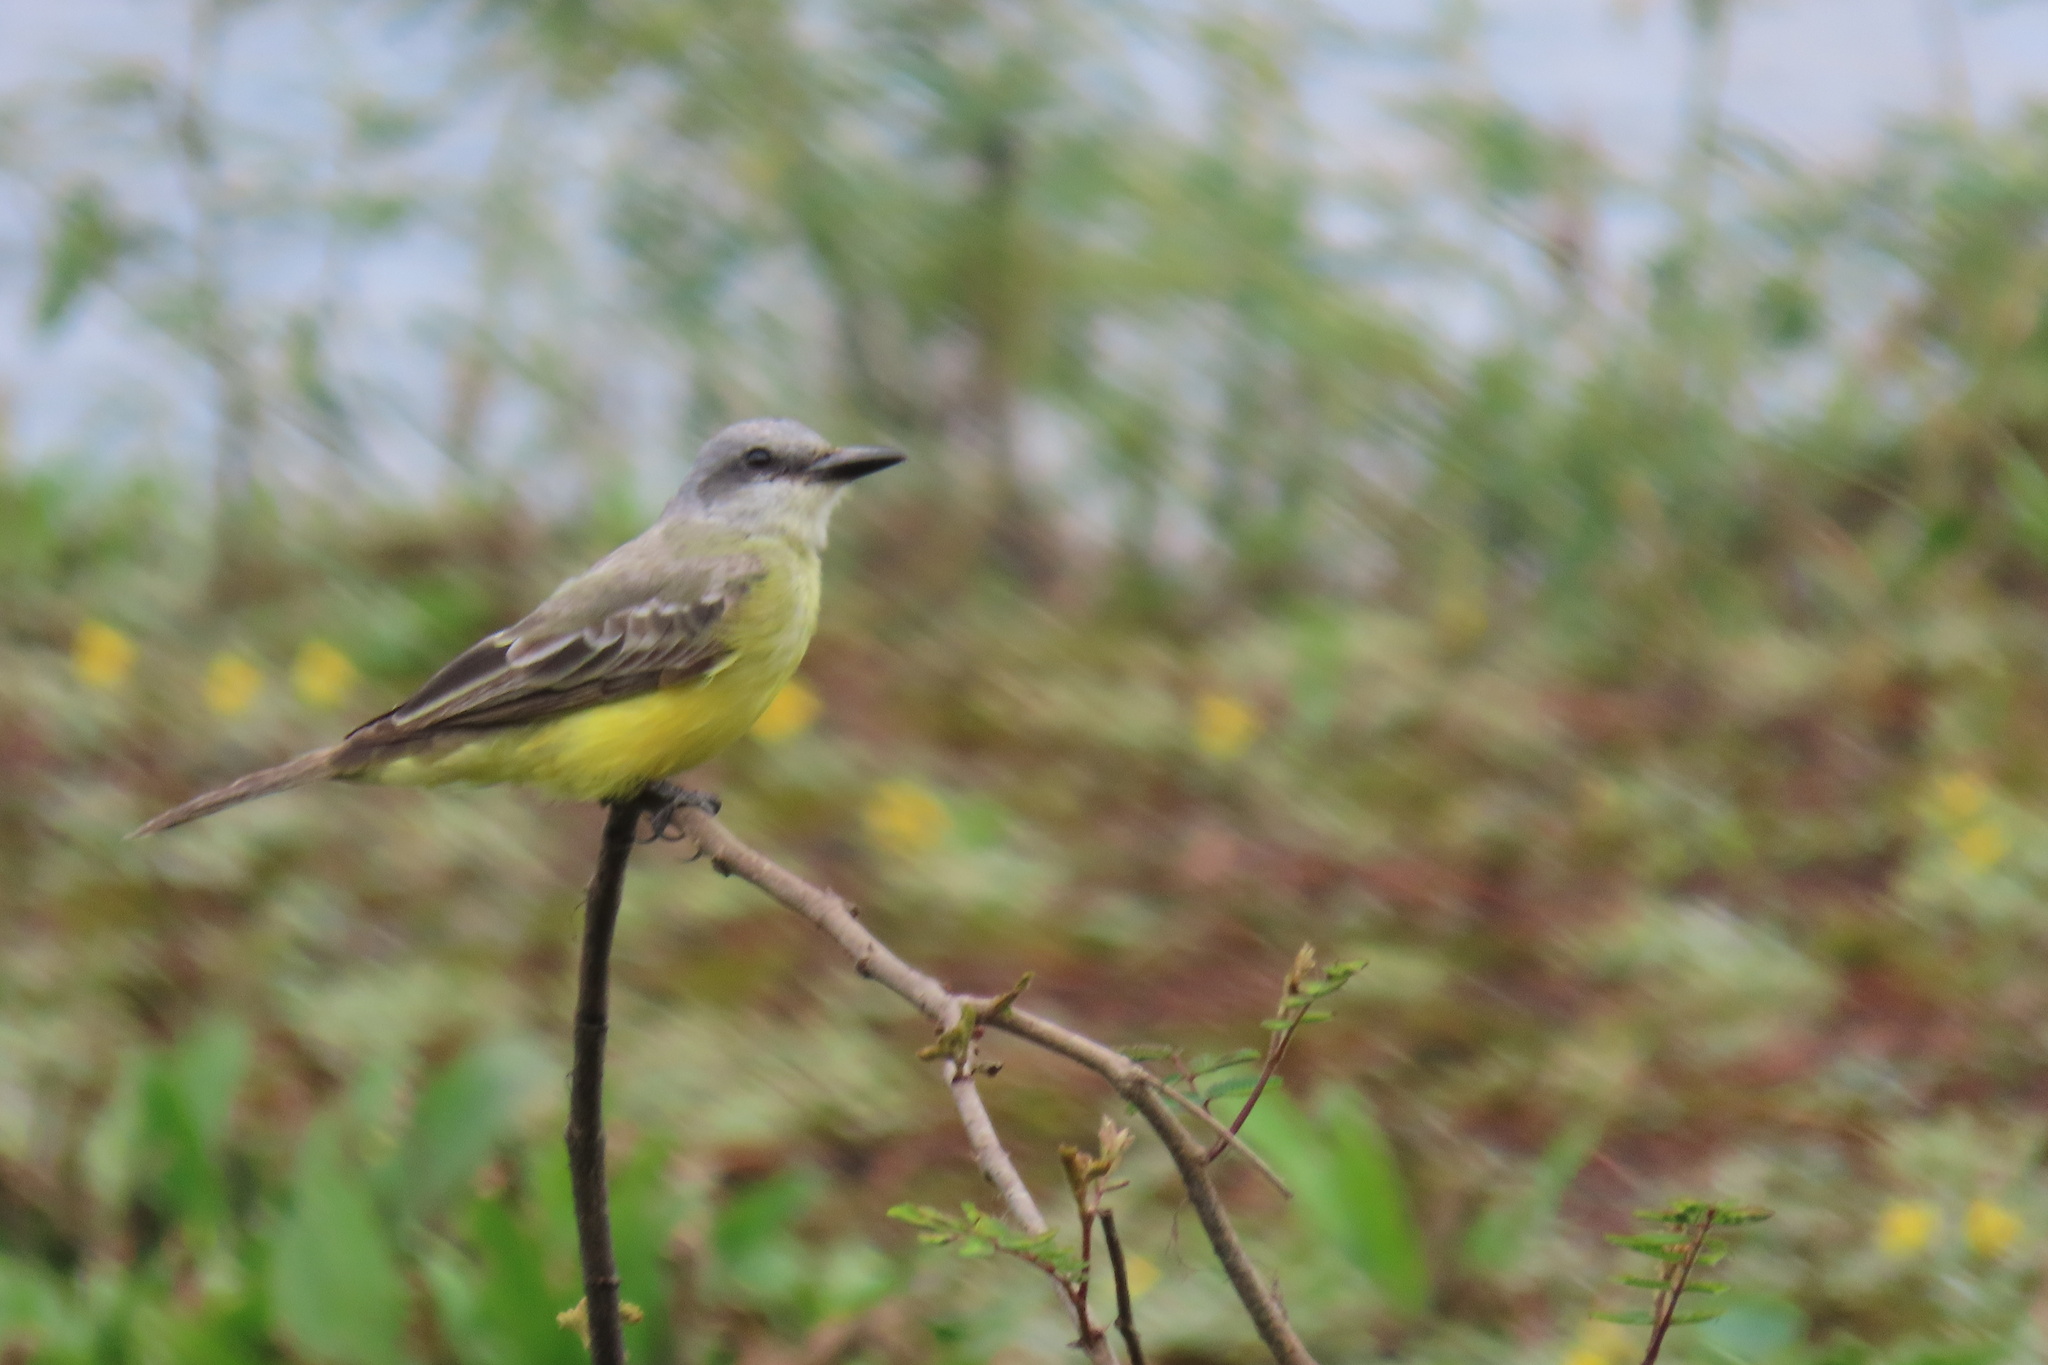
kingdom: Animalia
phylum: Chordata
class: Aves
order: Passeriformes
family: Tyrannidae
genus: Tyrannus
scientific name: Tyrannus melancholicus
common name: Tropical kingbird
